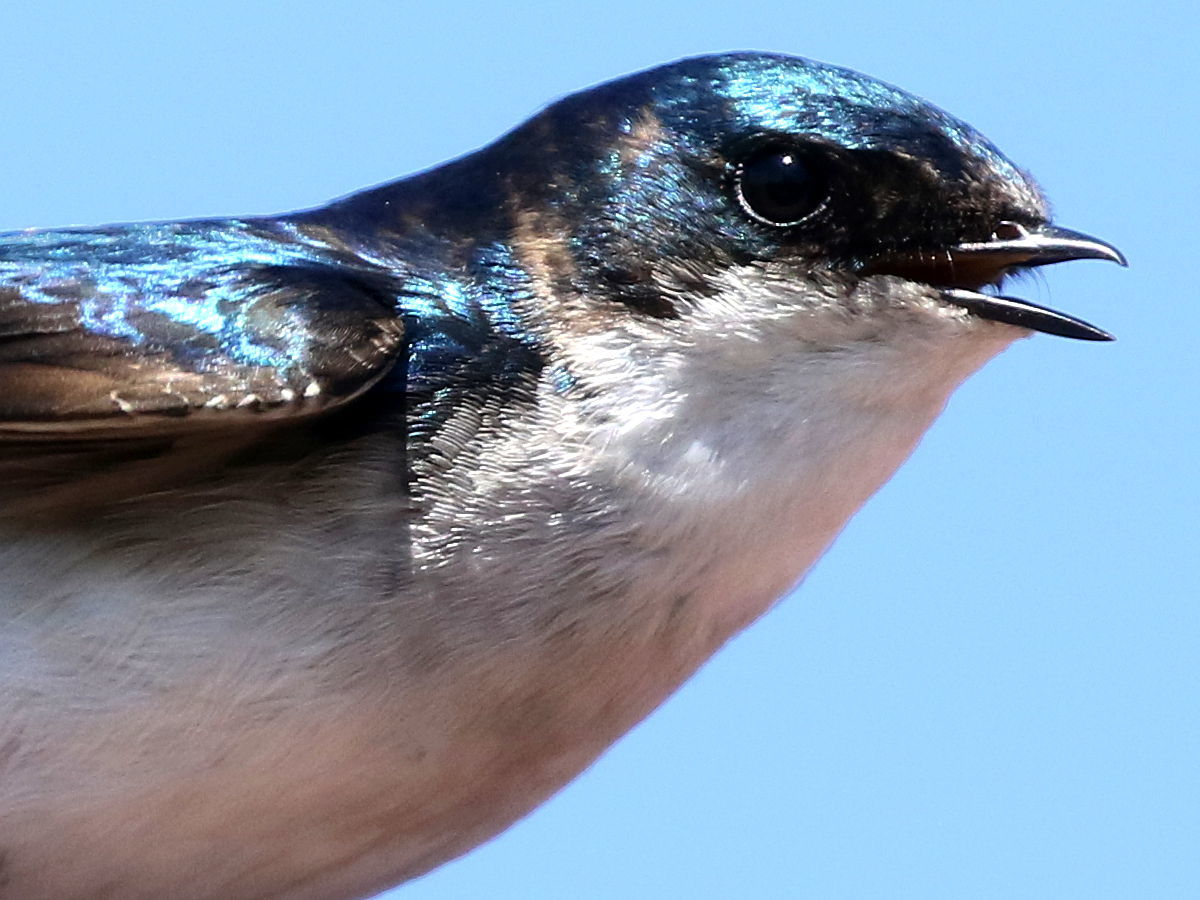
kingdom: Animalia
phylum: Chordata
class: Aves
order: Passeriformes
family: Hirundinidae
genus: Tachycineta
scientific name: Tachycineta bicolor
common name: Tree swallow
